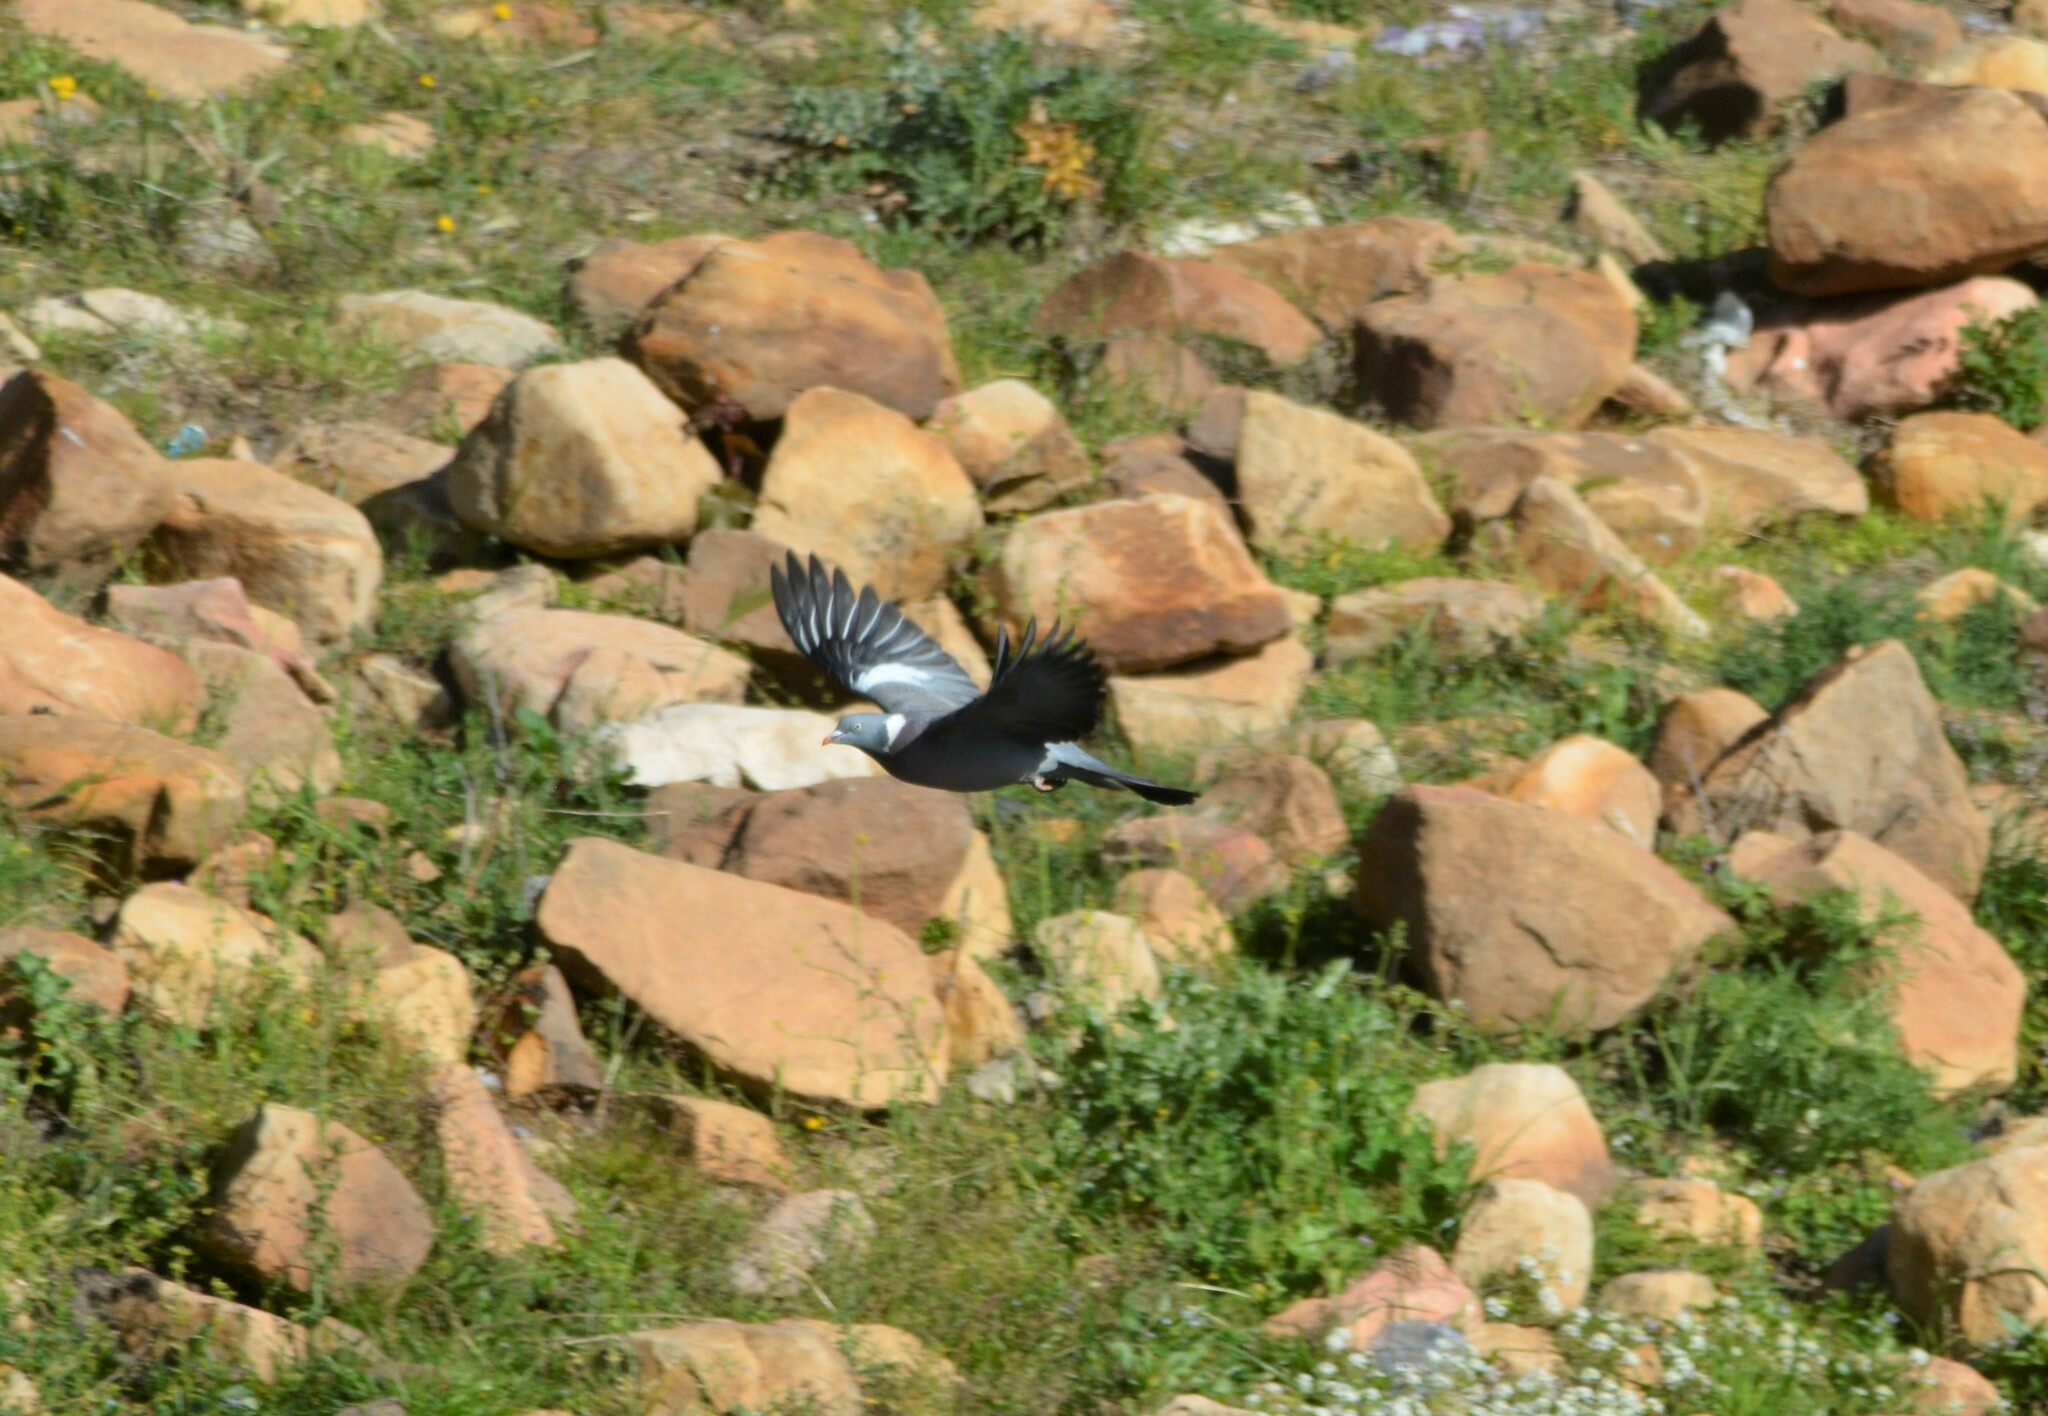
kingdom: Animalia
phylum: Chordata
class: Aves
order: Columbiformes
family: Columbidae
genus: Columba
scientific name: Columba palumbus
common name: Common wood pigeon
